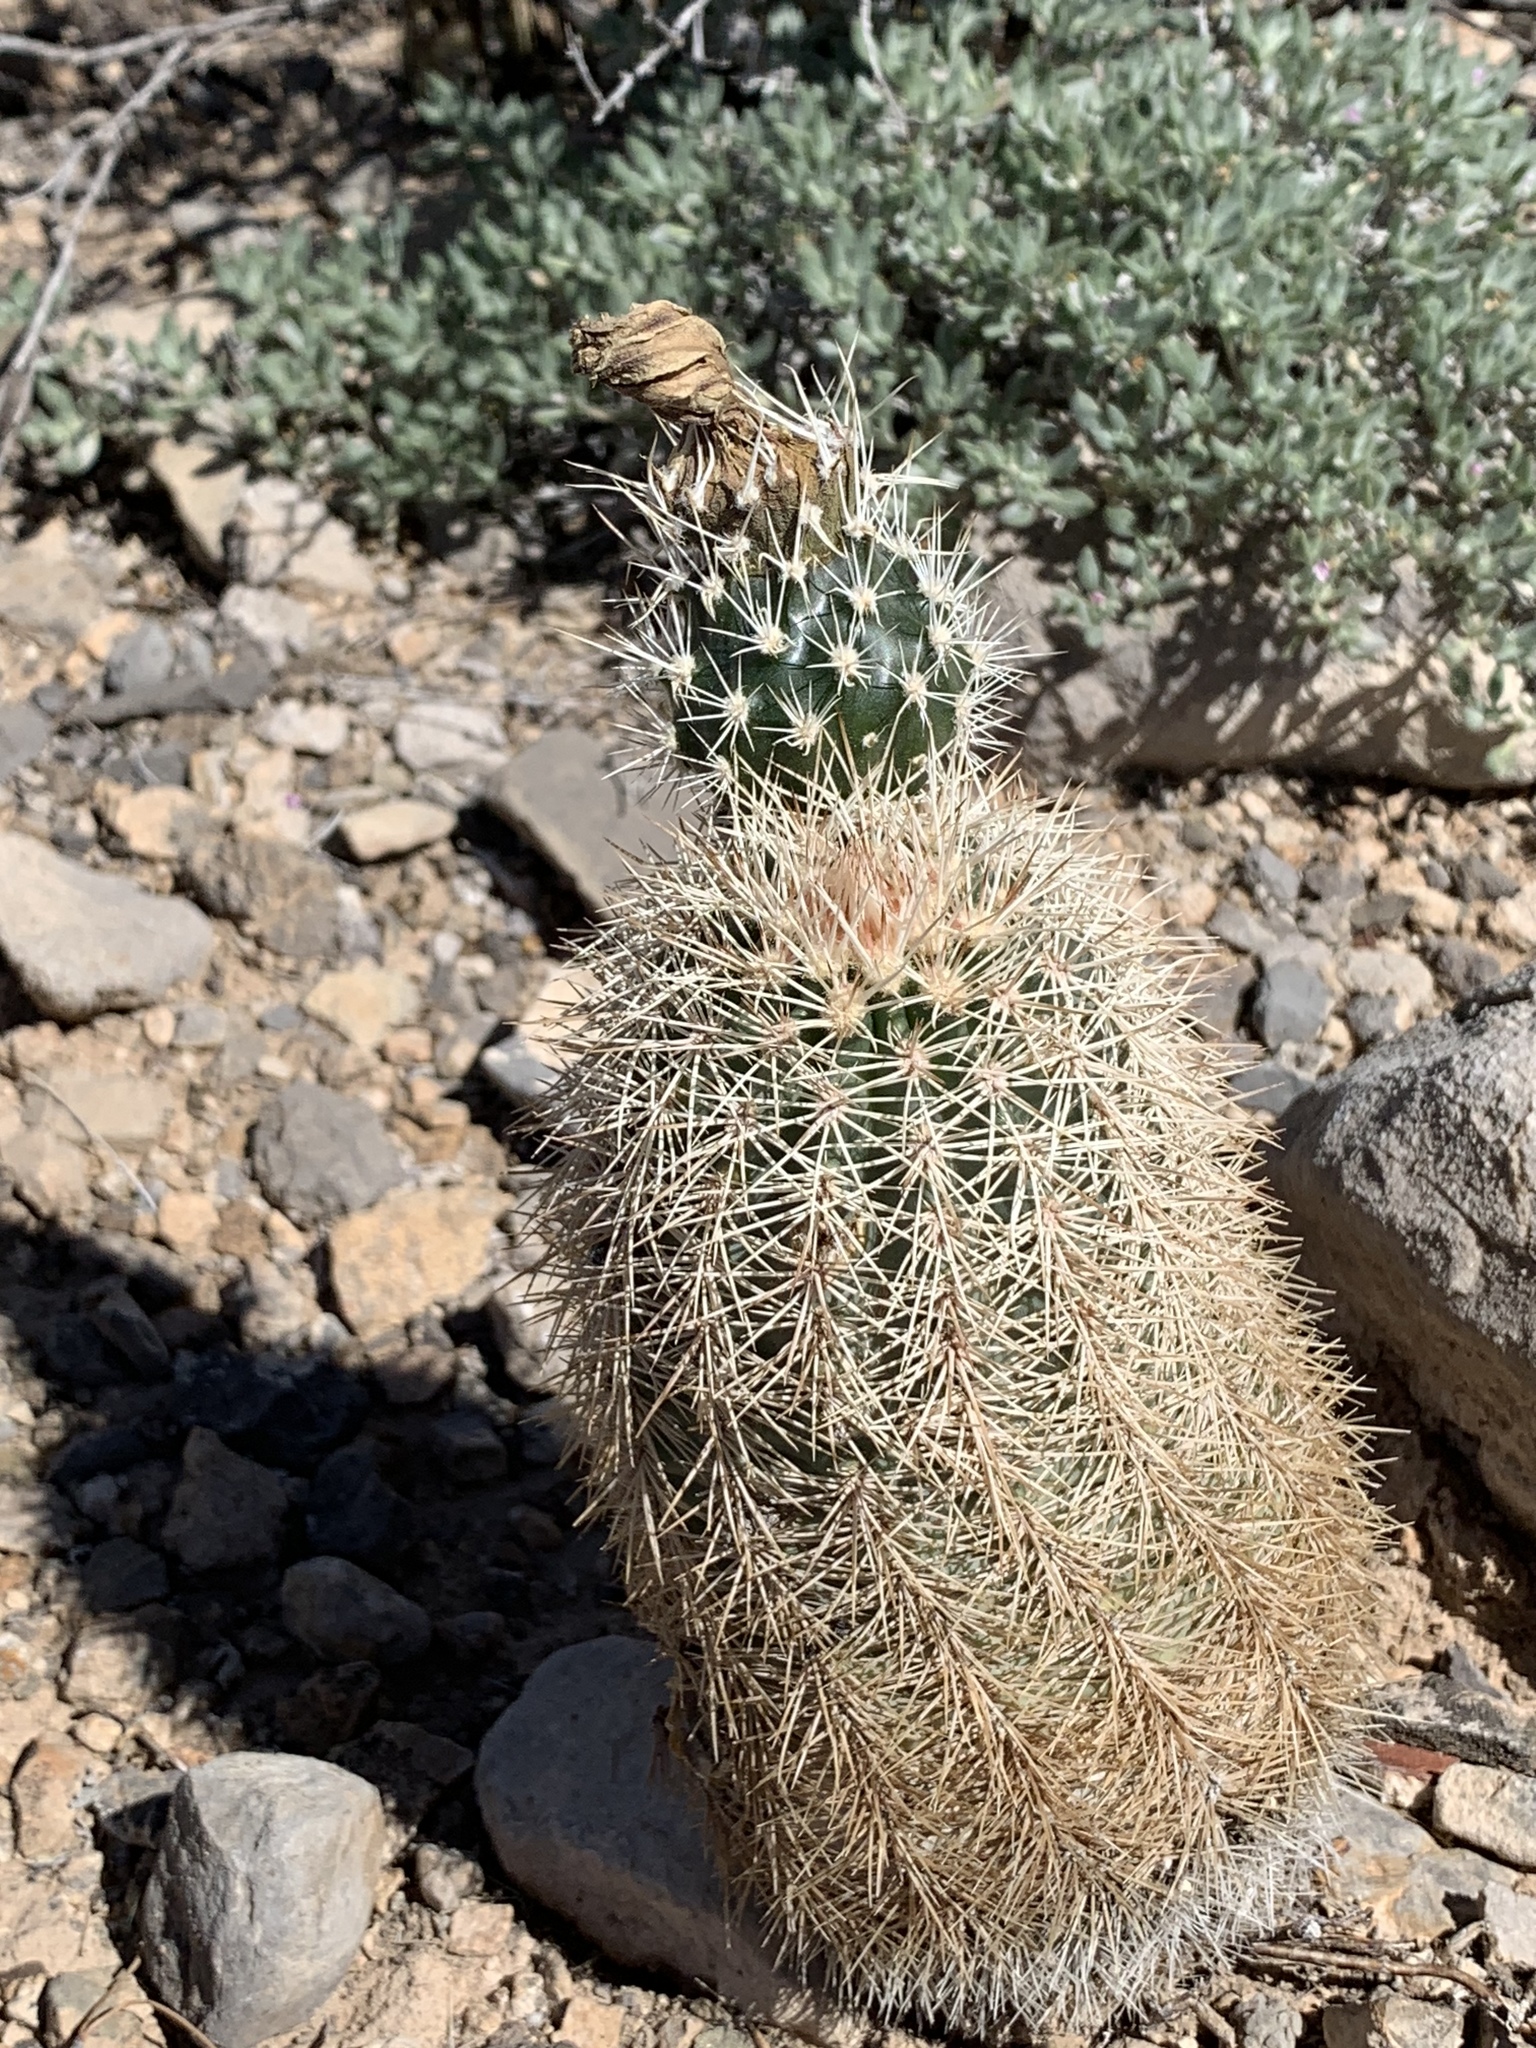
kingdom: Plantae
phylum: Tracheophyta
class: Magnoliopsida
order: Caryophyllales
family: Cactaceae
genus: Echinocereus
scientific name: Echinocereus dasyacanthus
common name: Spiny hedgehog cactus
